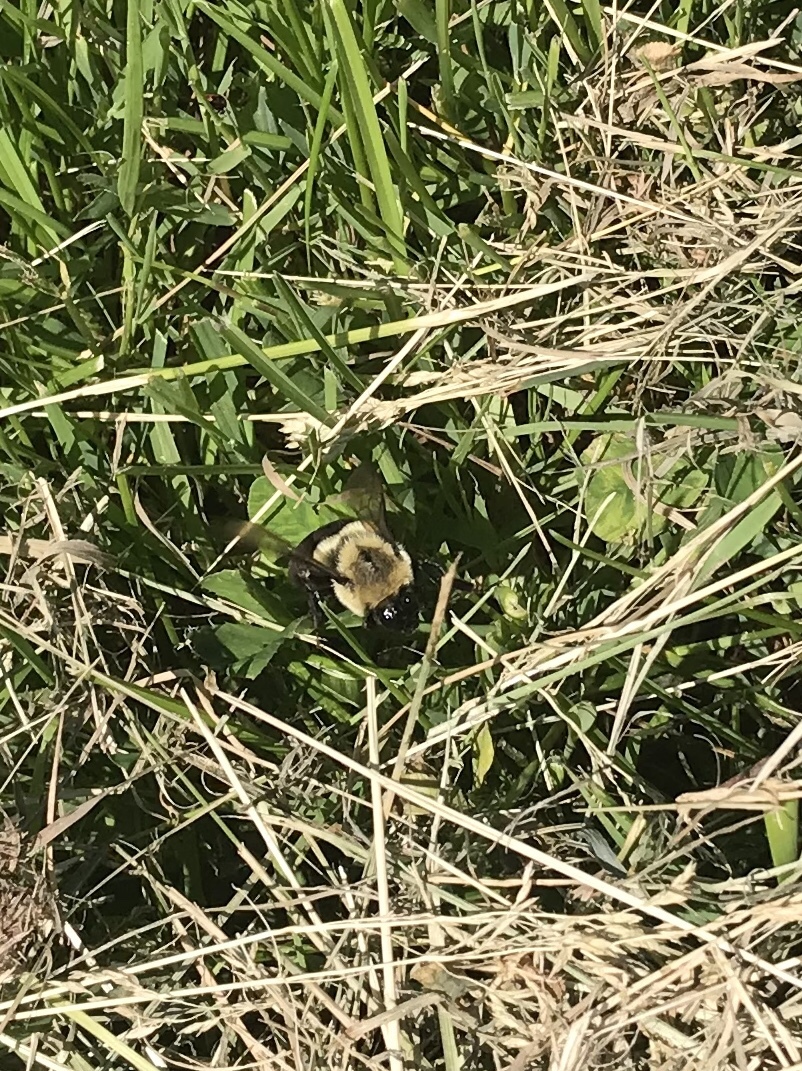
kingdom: Animalia
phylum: Arthropoda
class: Insecta
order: Hymenoptera
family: Apidae
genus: Bombus
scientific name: Bombus impatiens
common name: Common eastern bumble bee
